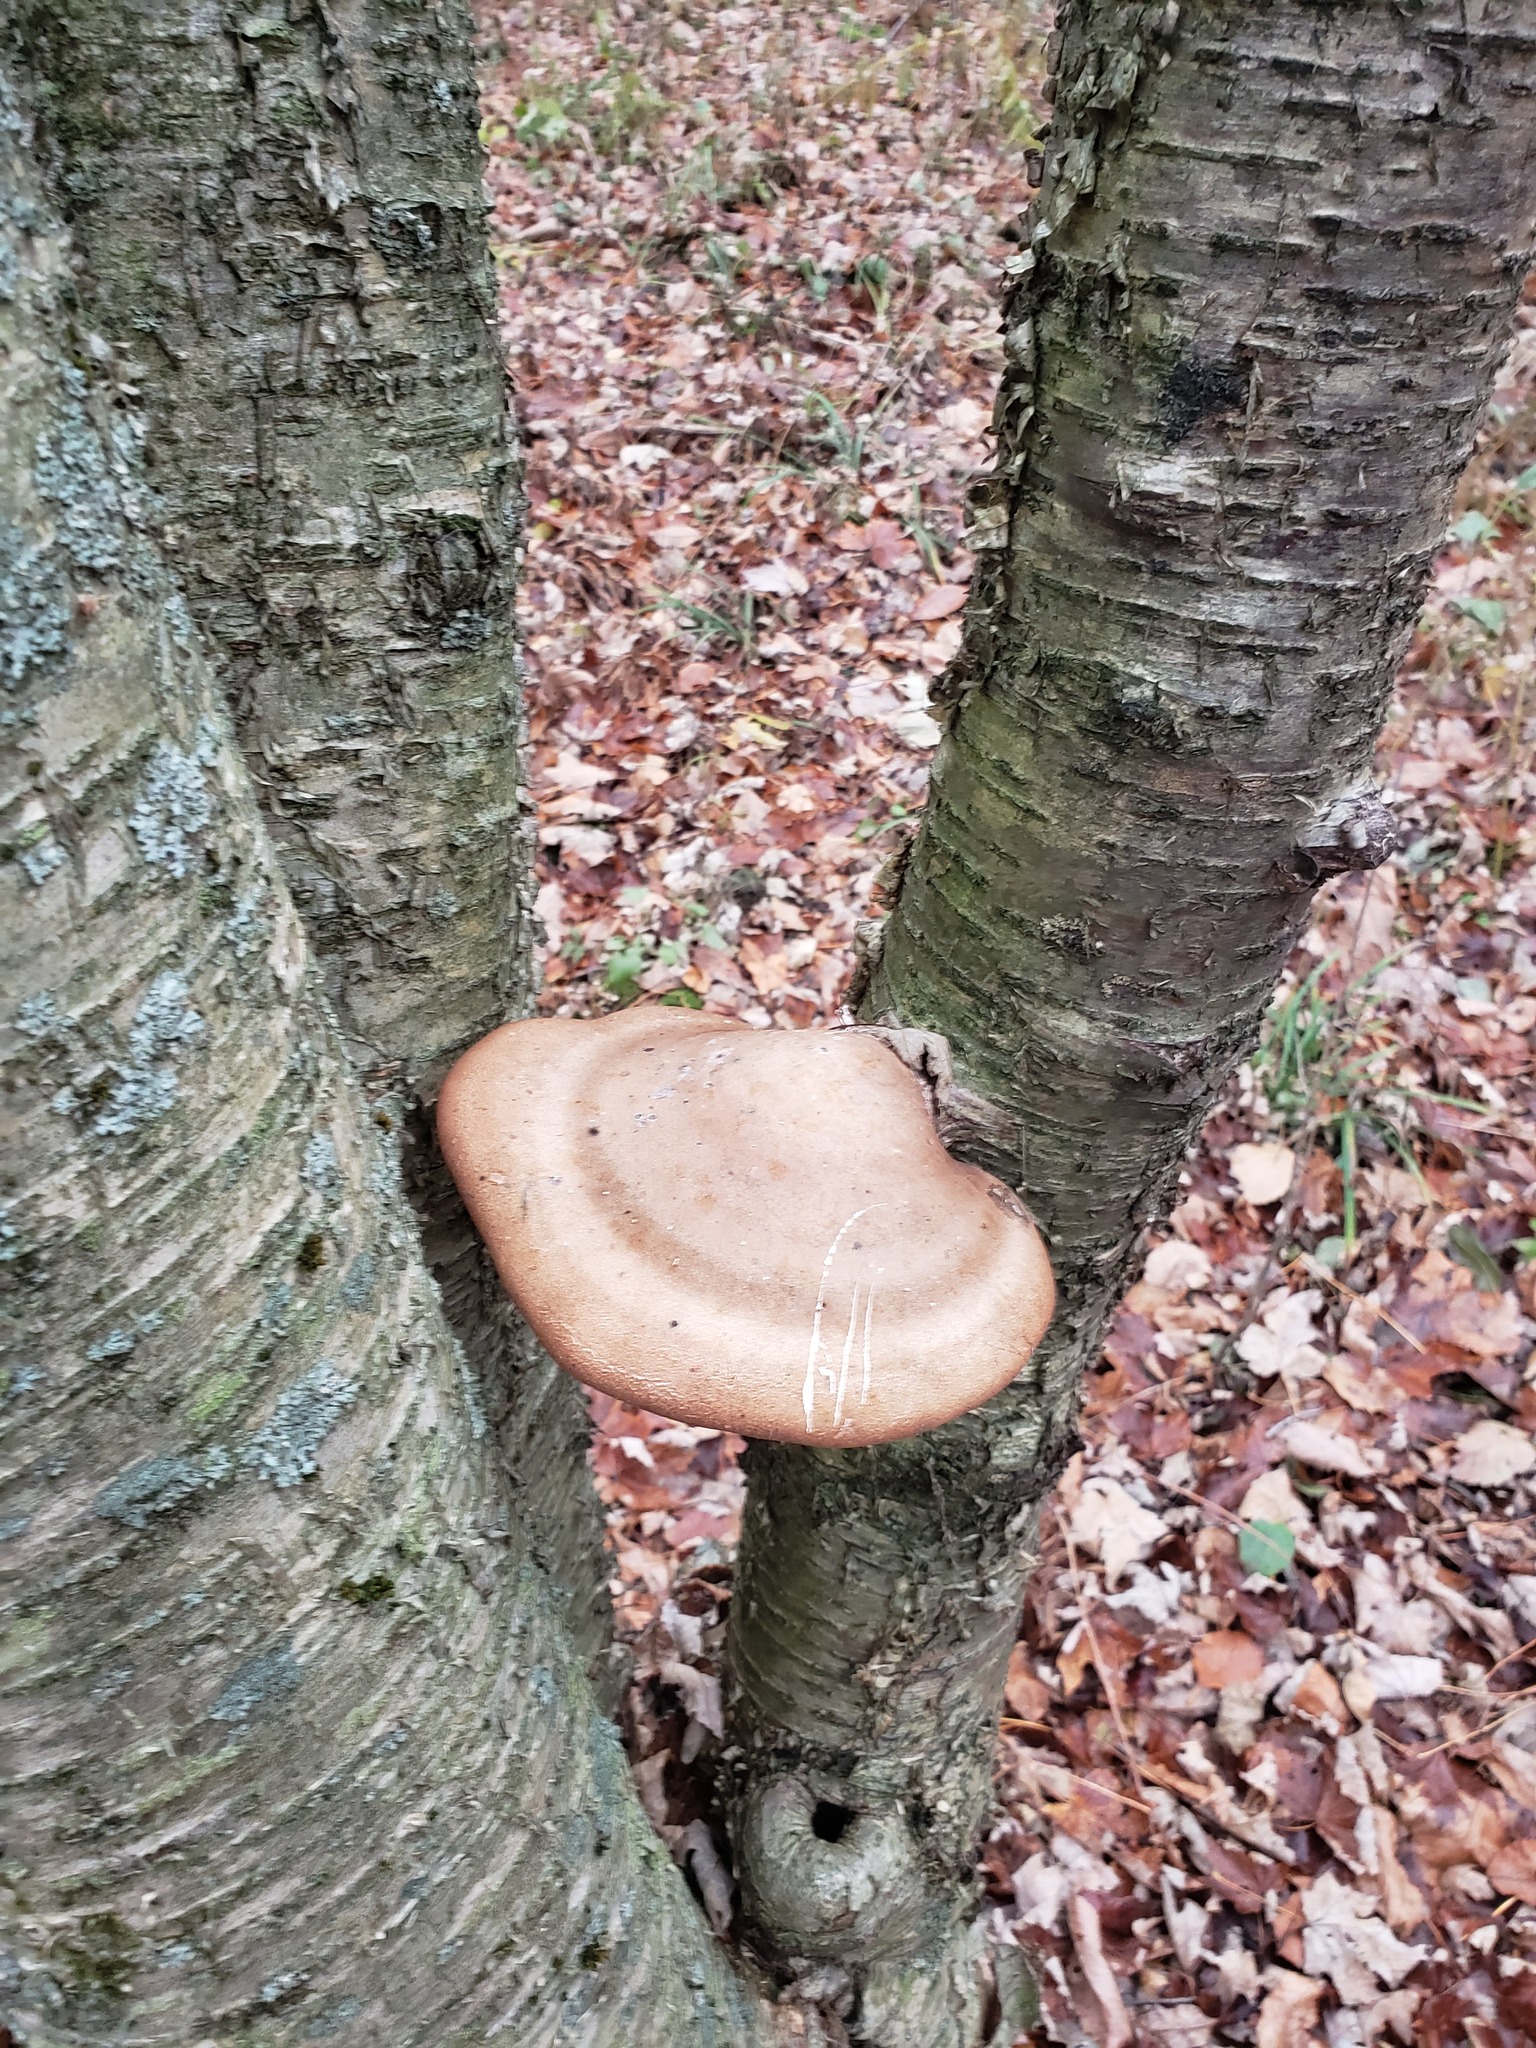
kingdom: Fungi
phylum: Basidiomycota
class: Agaricomycetes
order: Polyporales
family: Fomitopsidaceae
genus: Fomitopsis
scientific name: Fomitopsis betulina
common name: Birch polypore
